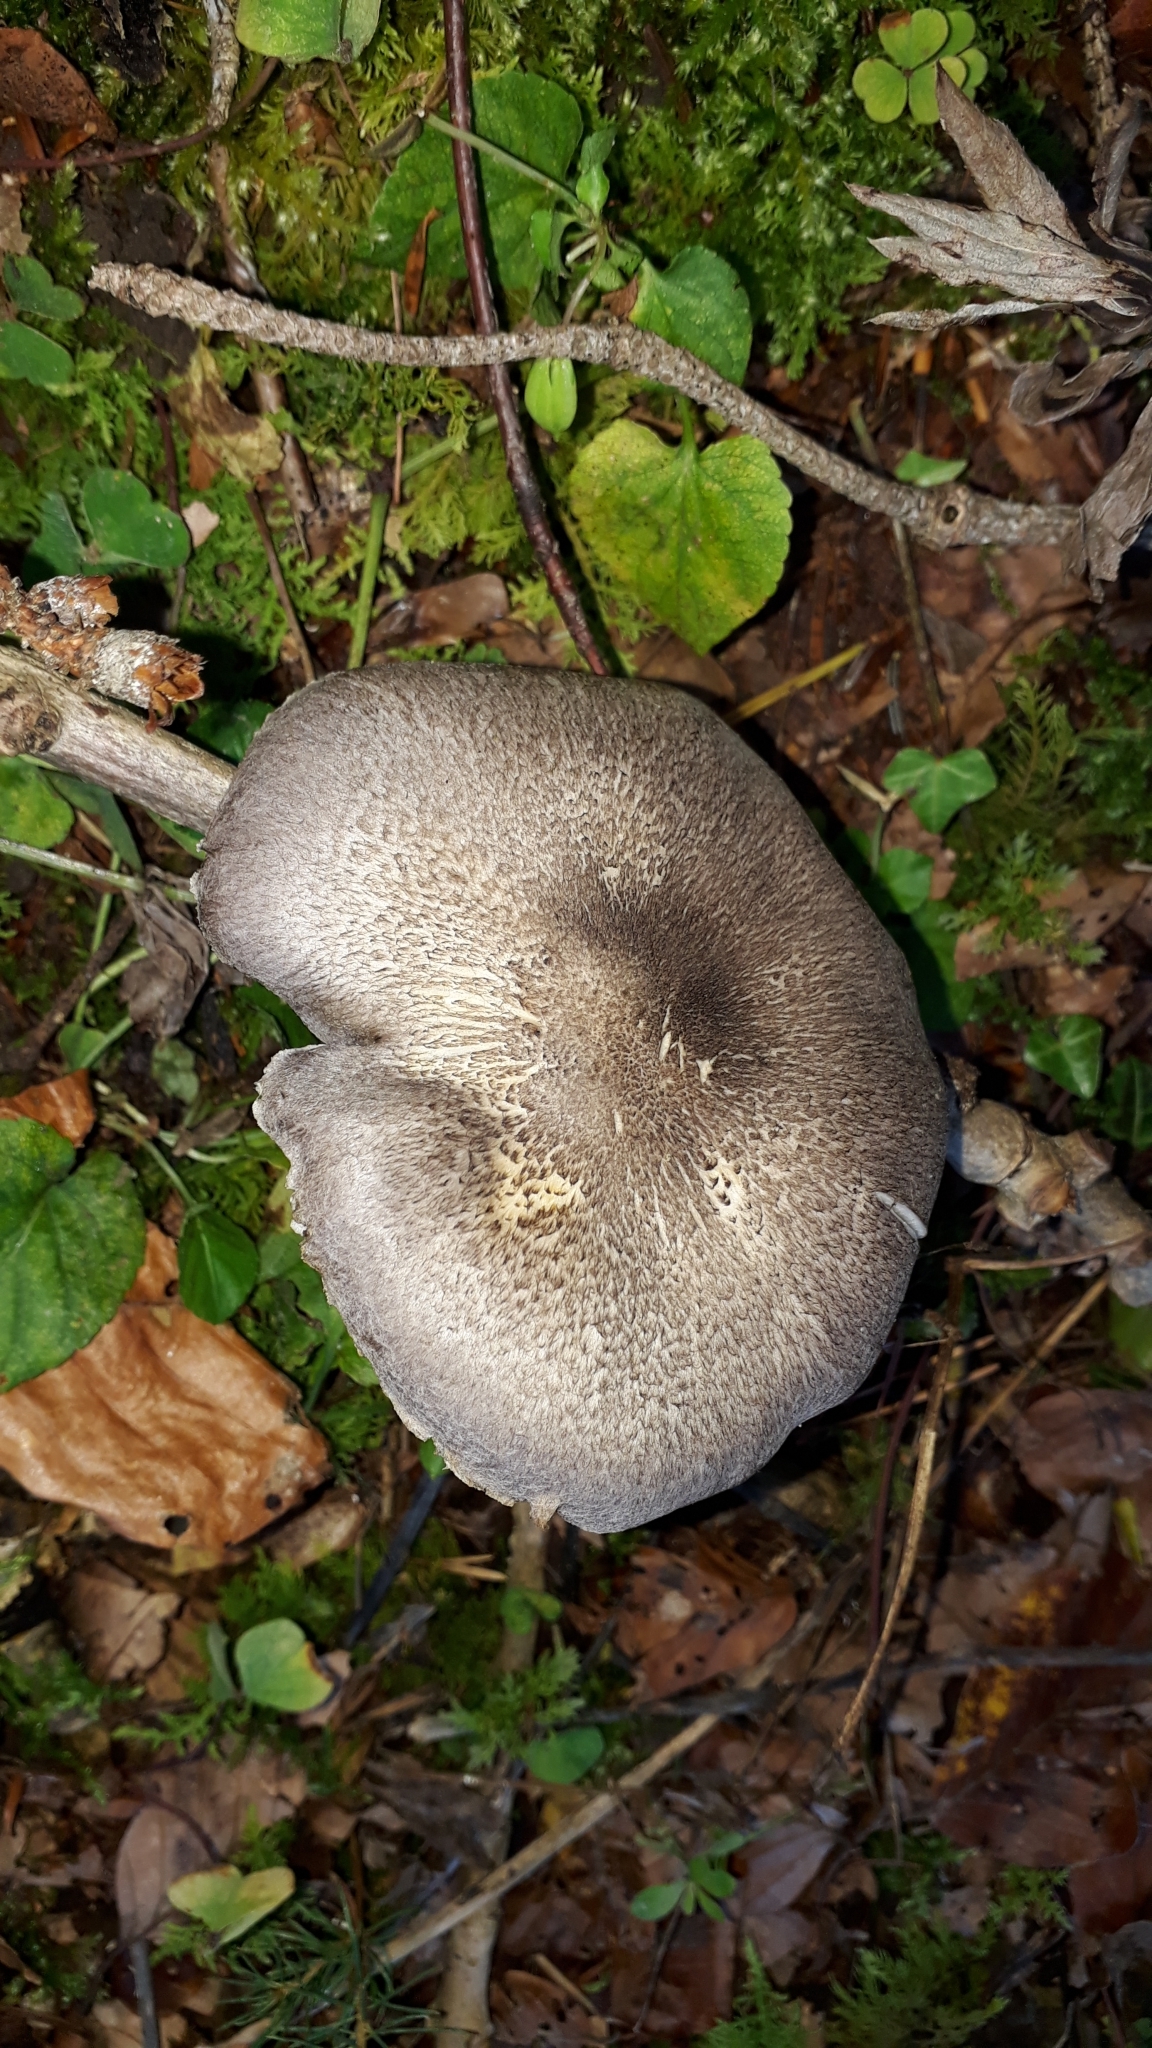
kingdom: Fungi
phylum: Basidiomycota
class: Agaricomycetes
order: Agaricales
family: Tricholomataceae
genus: Tricholoma
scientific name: Tricholoma terreum
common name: Grey knight
